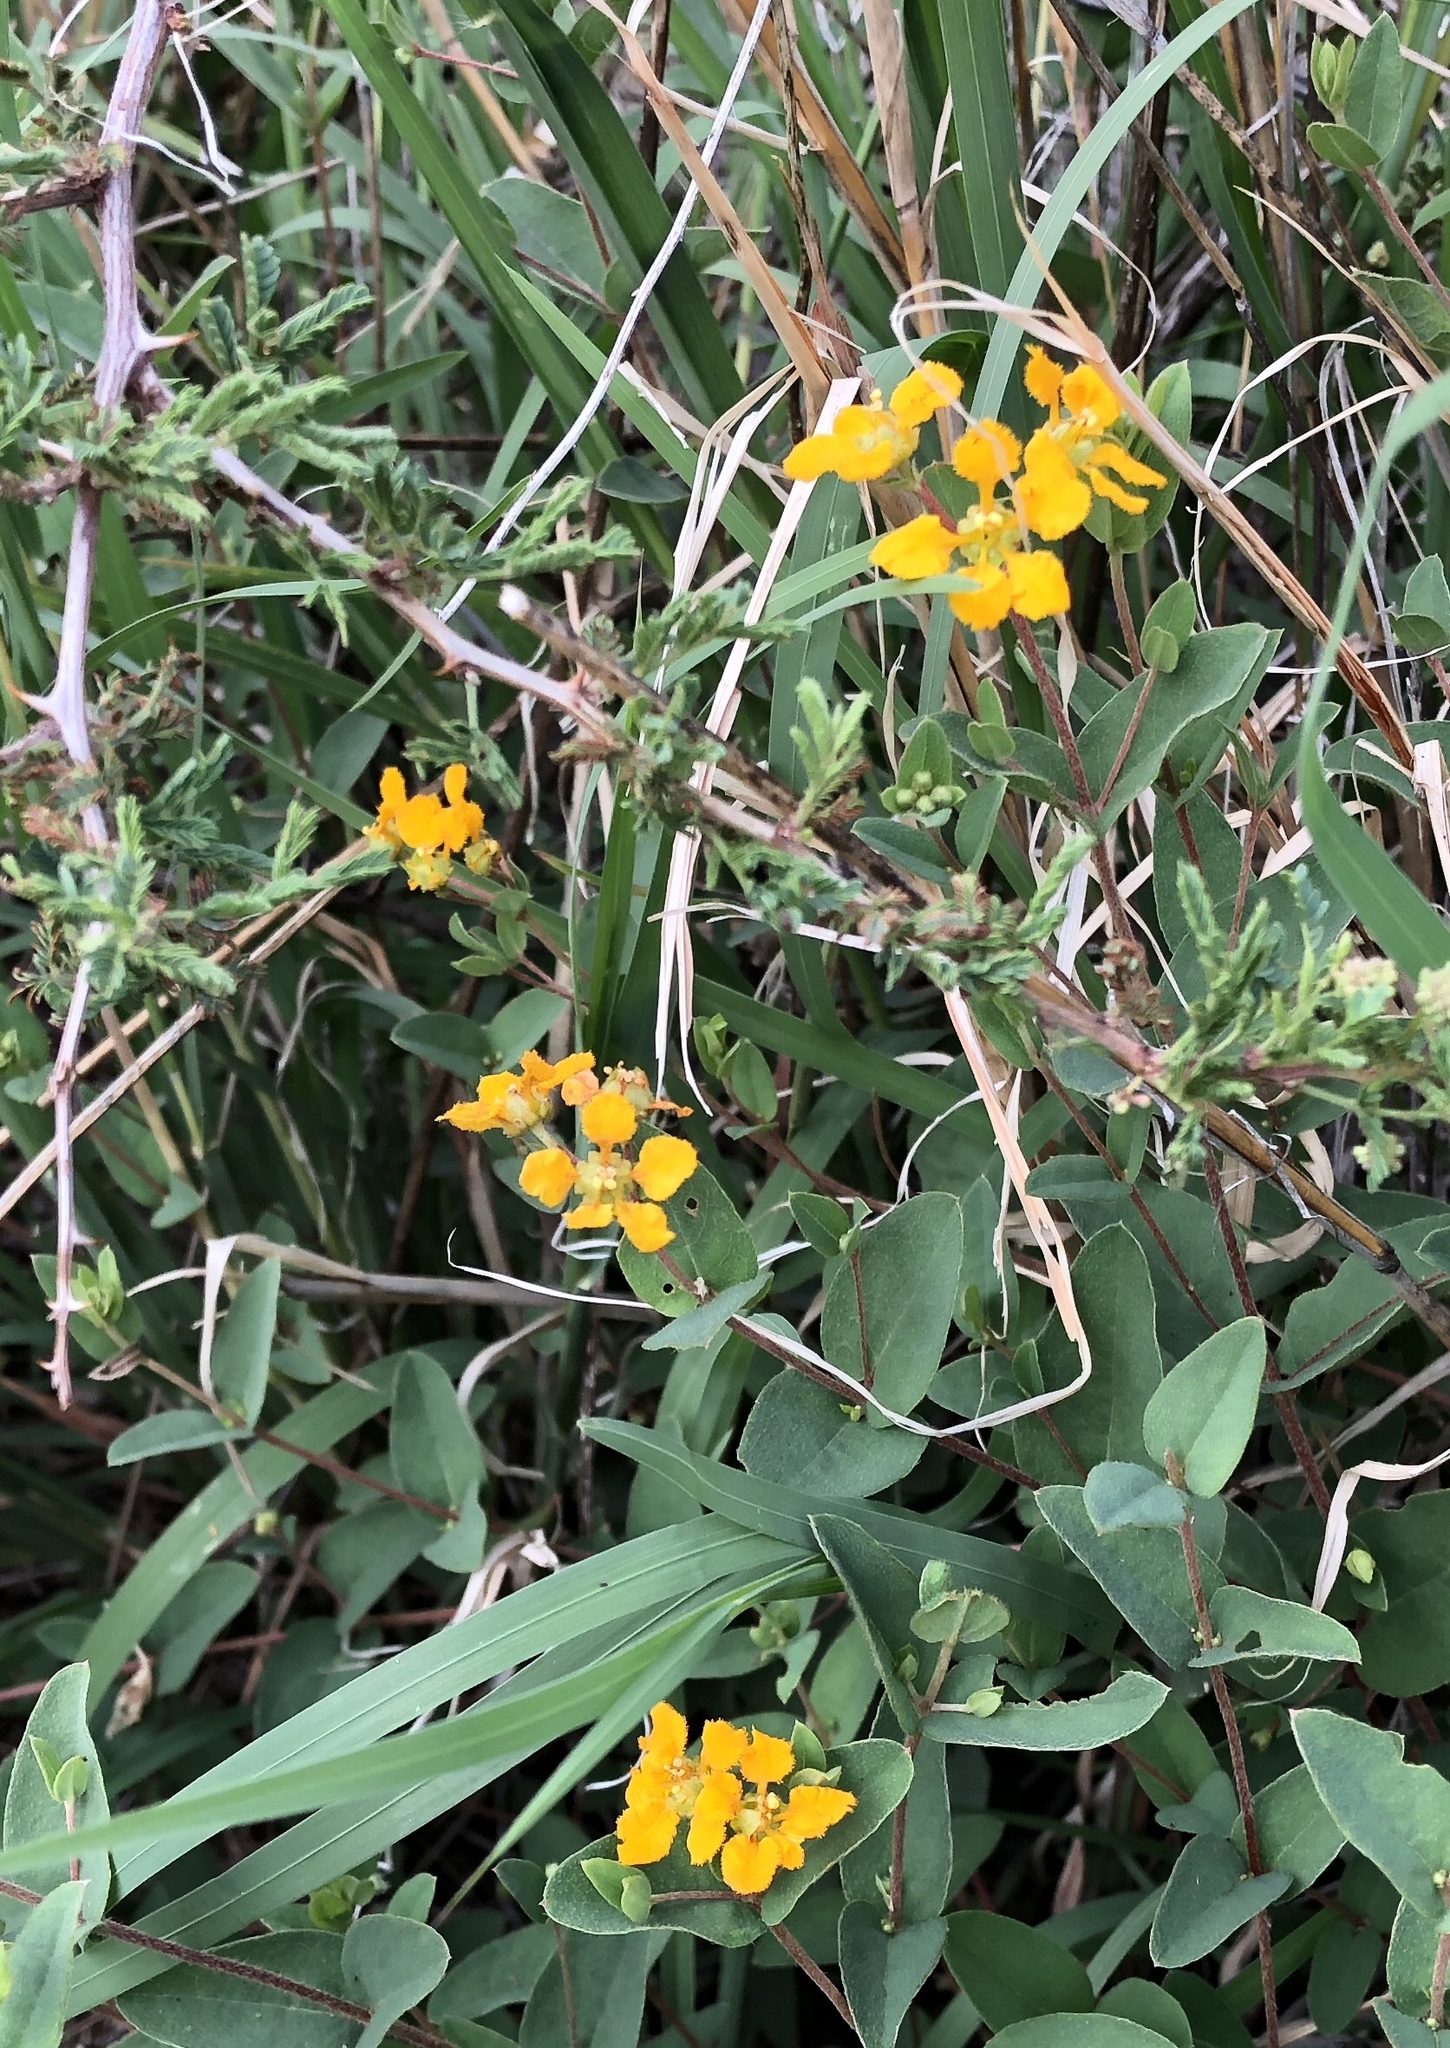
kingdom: Plantae
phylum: Tracheophyta
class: Magnoliopsida
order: Malpighiales
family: Malpighiaceae
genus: Aspicarpa
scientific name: Aspicarpa hirtella
